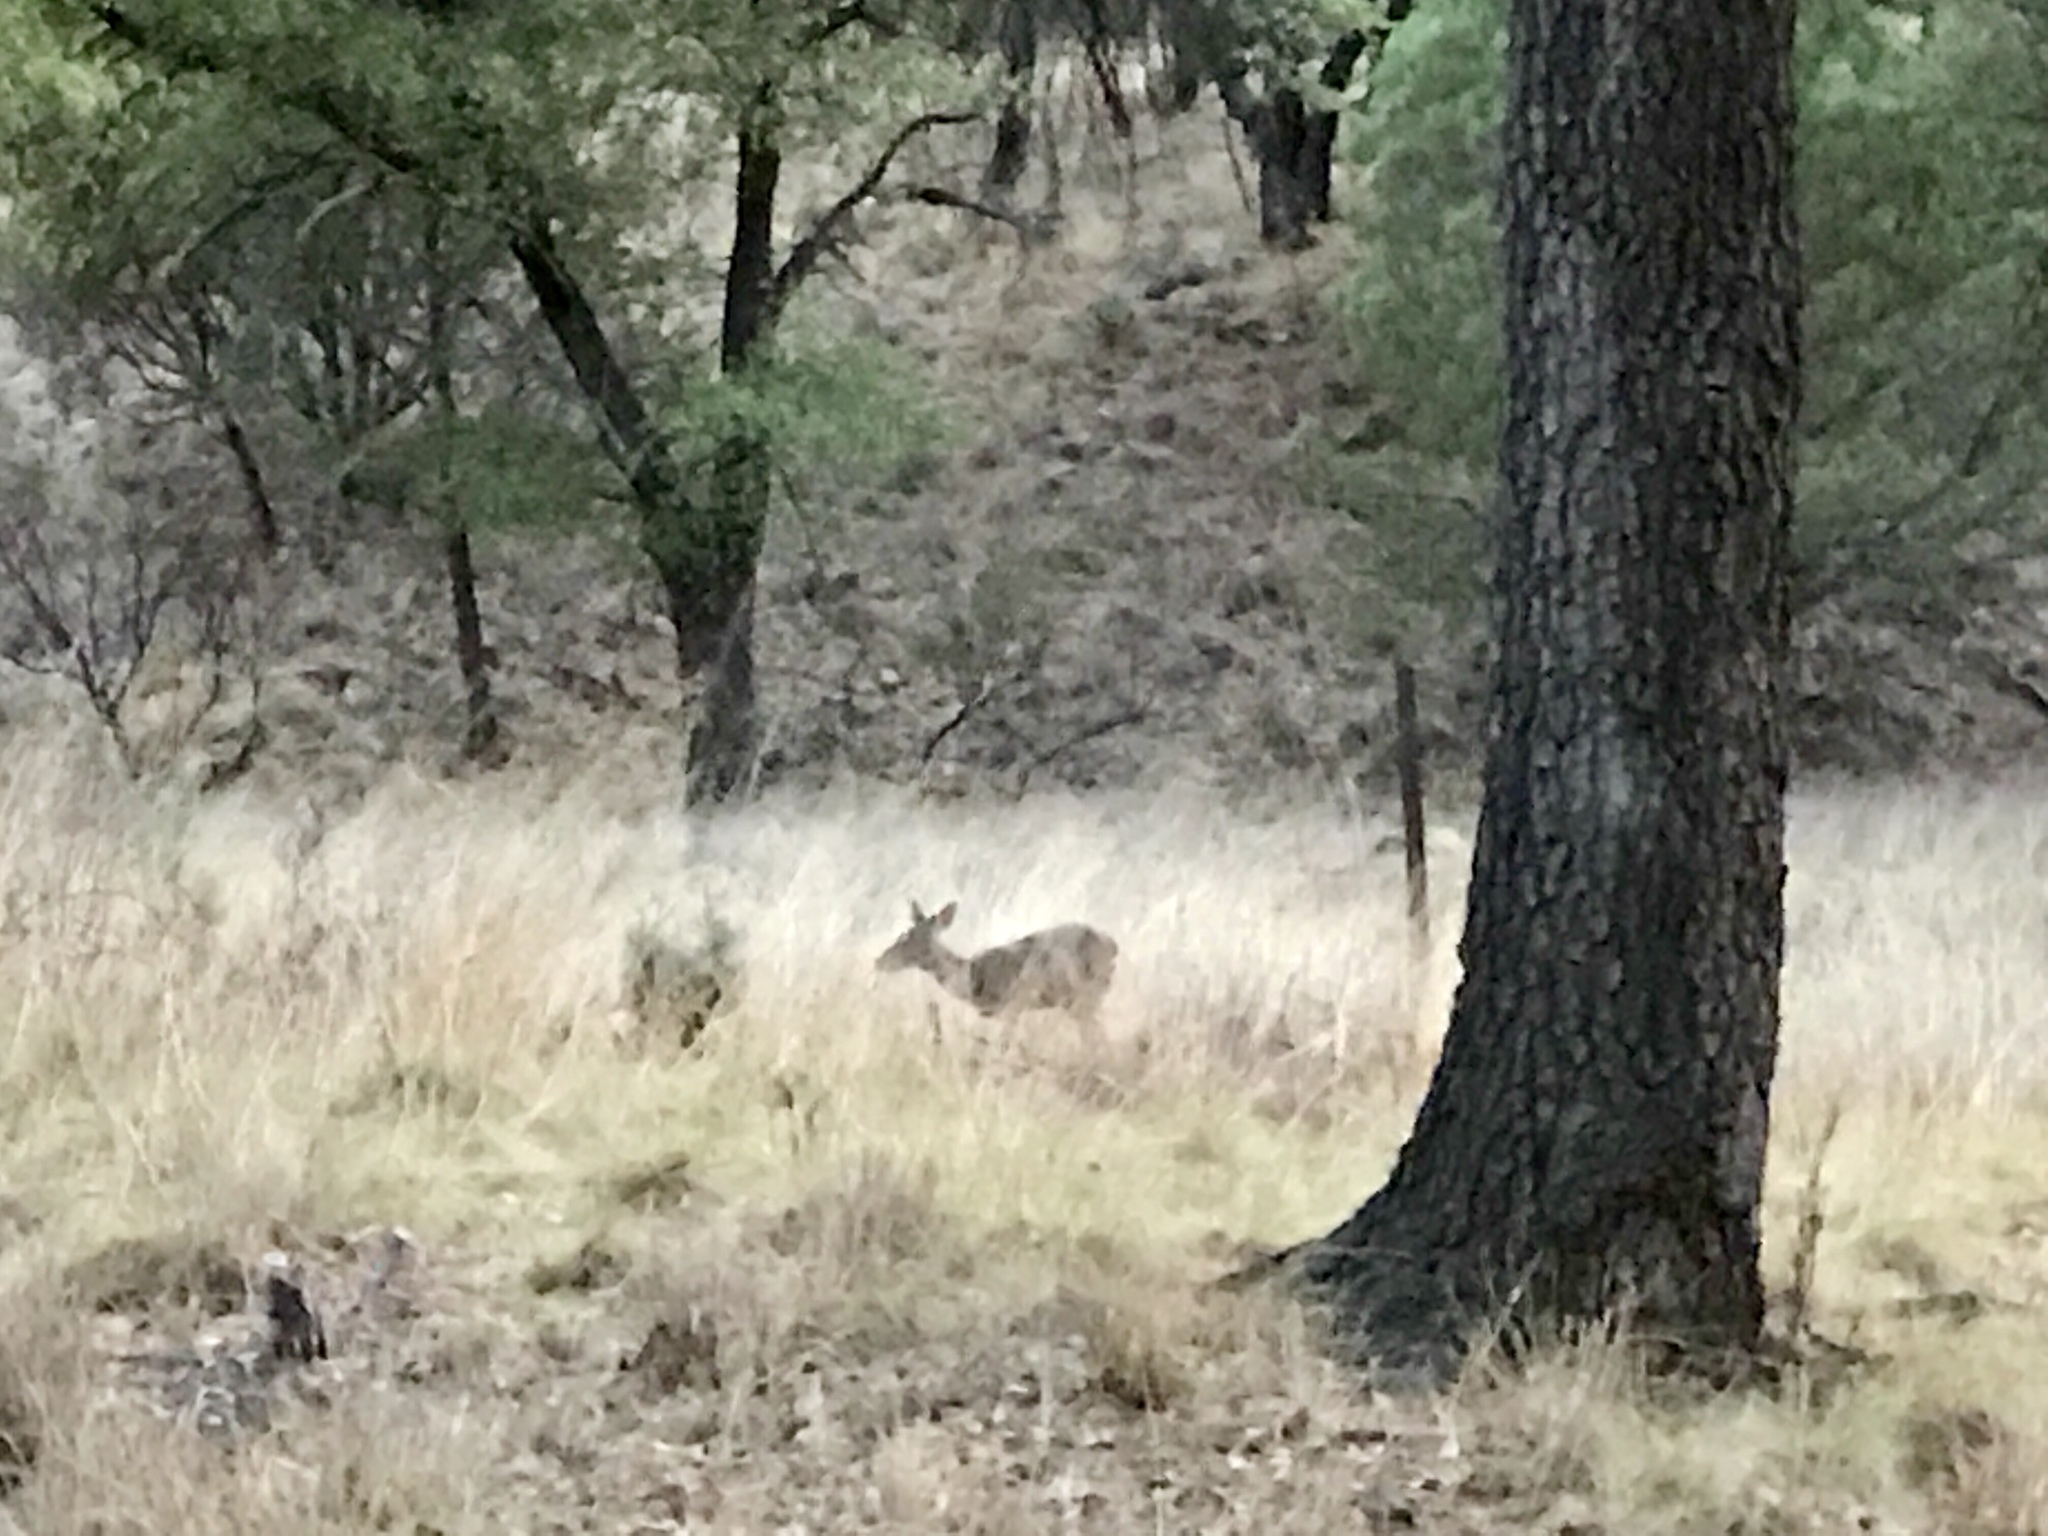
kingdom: Animalia
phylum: Chordata
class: Mammalia
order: Artiodactyla
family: Cervidae
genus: Odocoileus
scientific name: Odocoileus virginianus
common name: White-tailed deer
